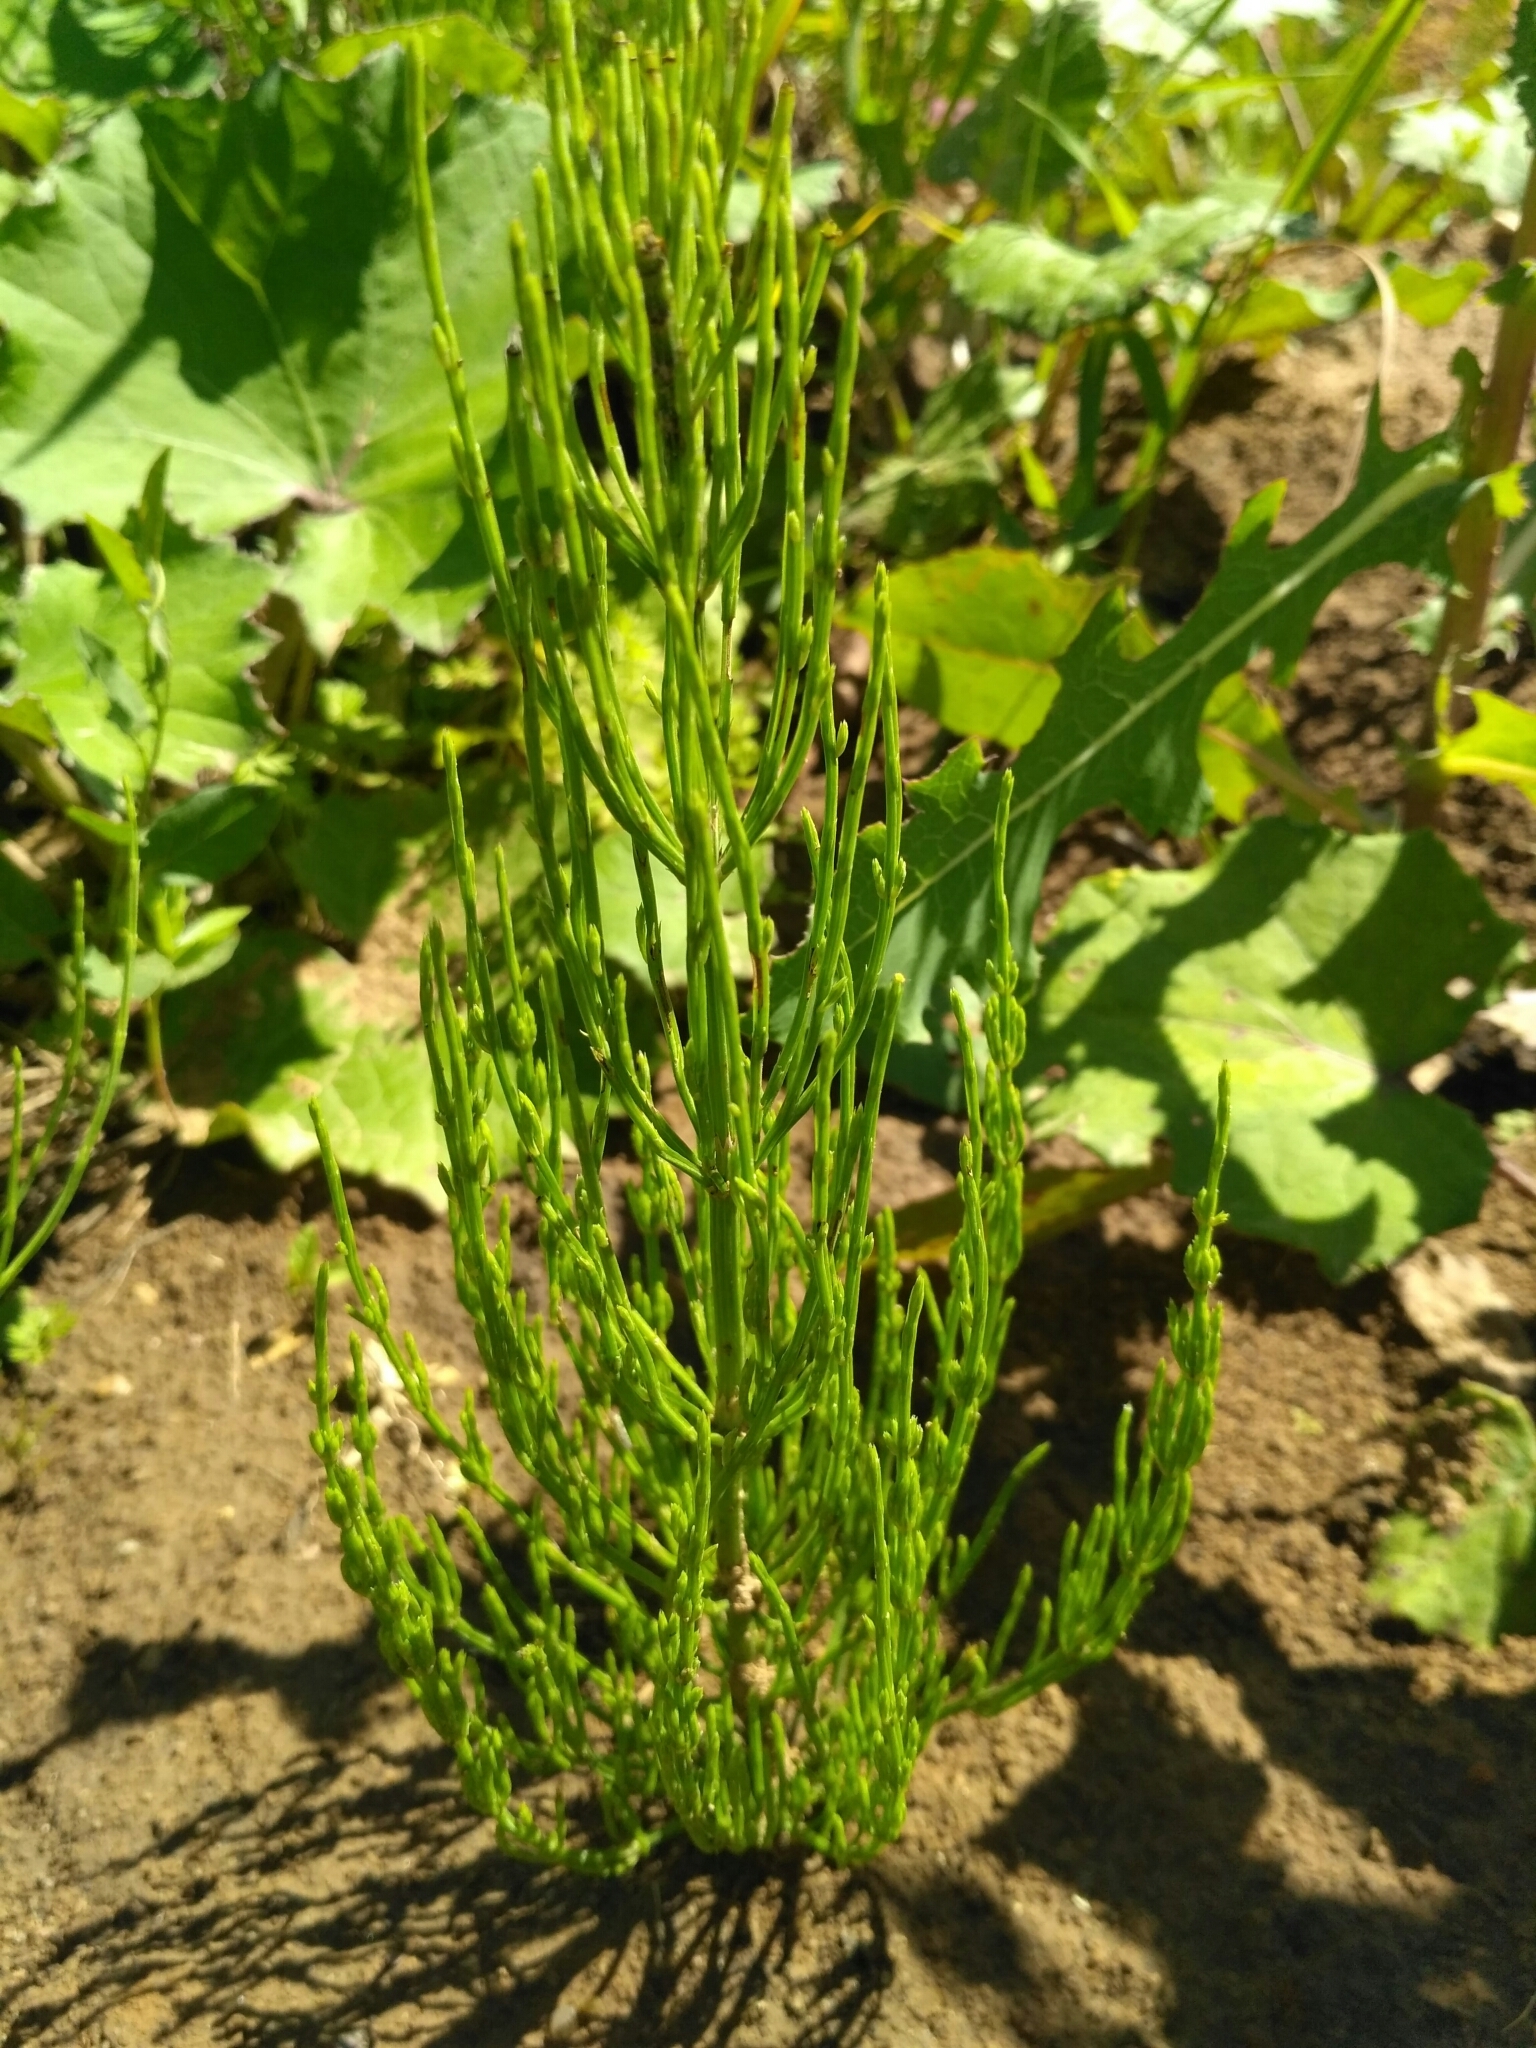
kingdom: Plantae
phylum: Tracheophyta
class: Polypodiopsida
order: Equisetales
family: Equisetaceae
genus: Equisetum
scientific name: Equisetum arvense
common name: Field horsetail
